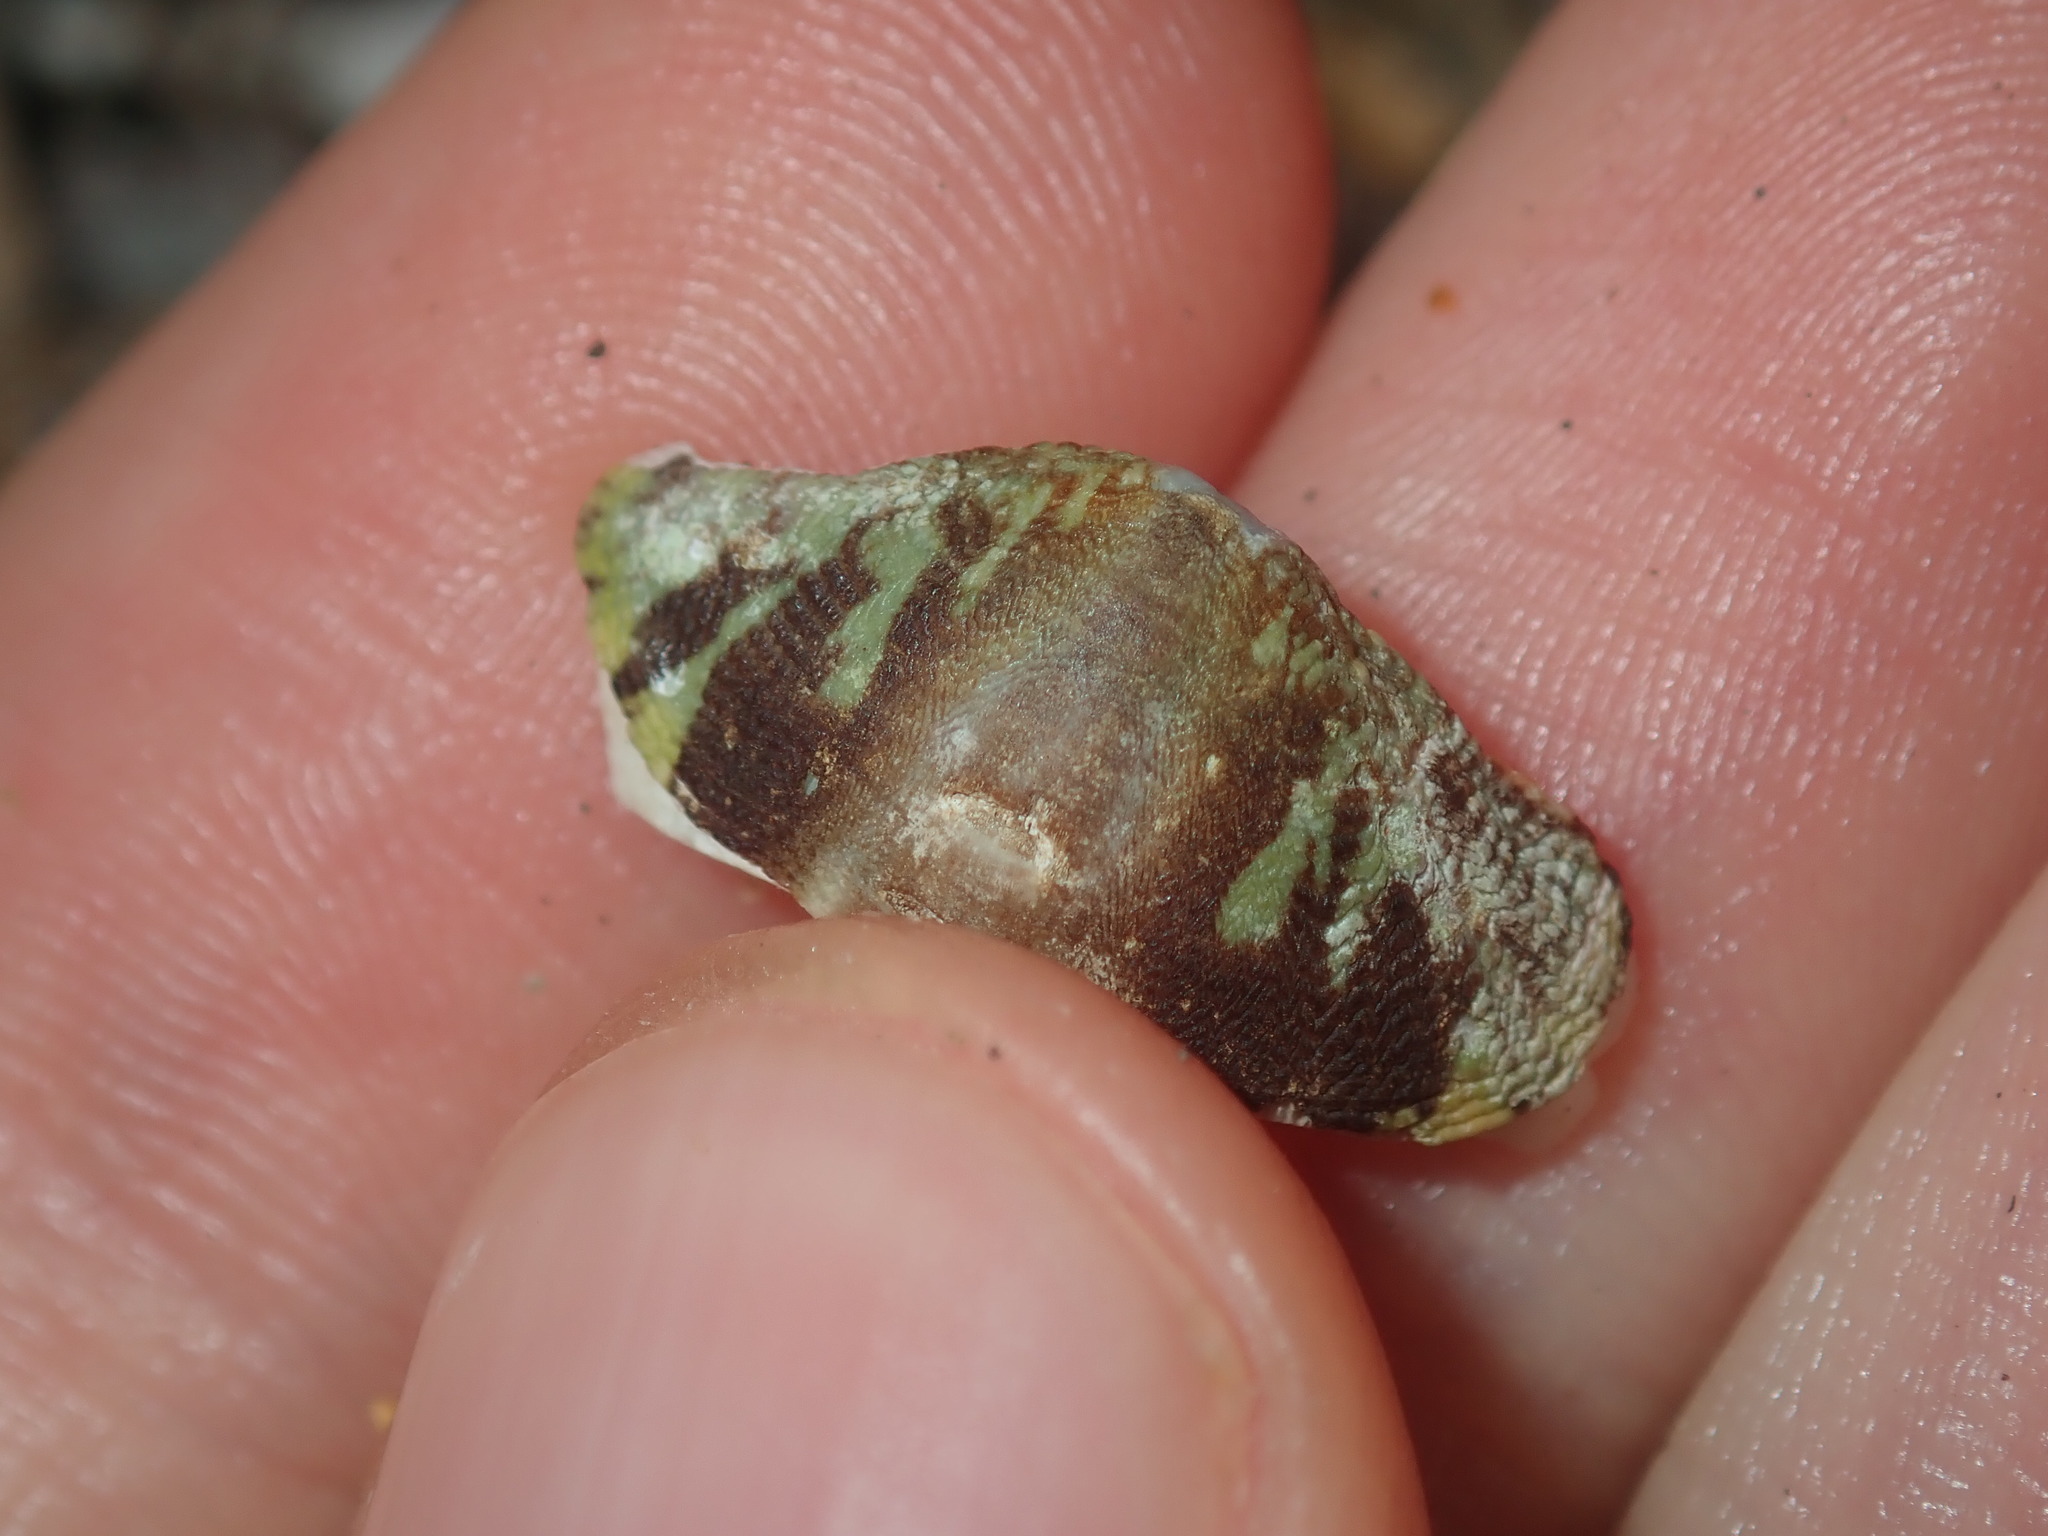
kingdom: Animalia
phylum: Mollusca
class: Polyplacophora
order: Chitonida
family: Mopaliidae
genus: Plaxiphora
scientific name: Plaxiphora albida
